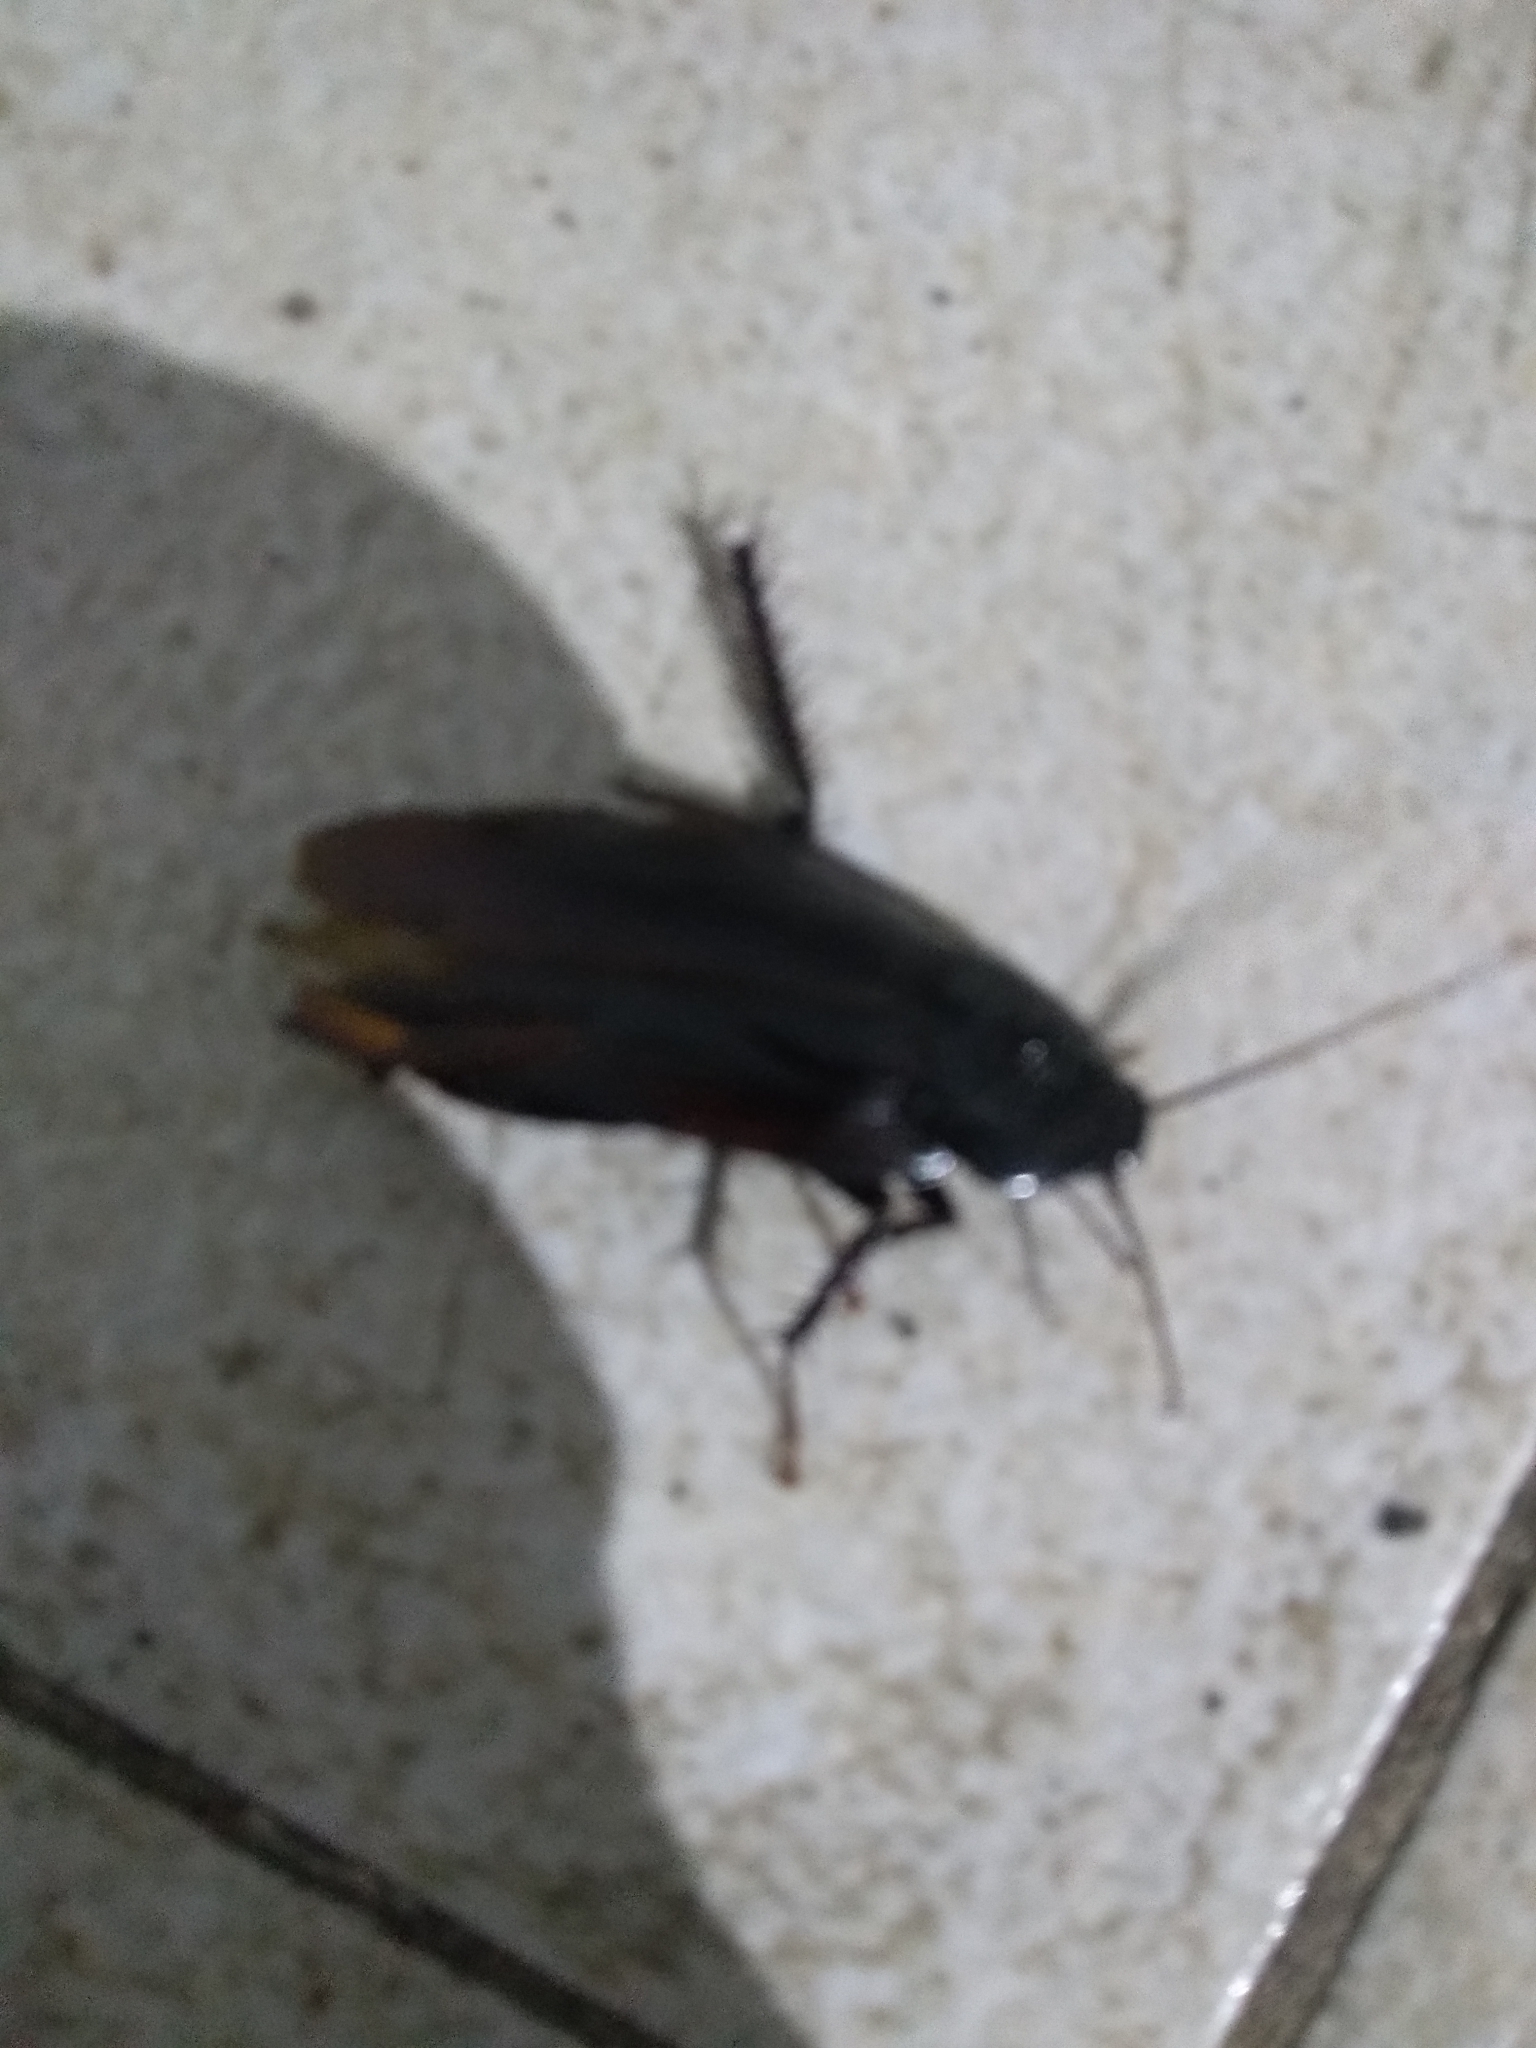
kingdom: Animalia
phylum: Arthropoda
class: Insecta
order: Blattodea
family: Blattidae
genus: Periplaneta
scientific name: Periplaneta fuliginosa
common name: Smokeybrown cockroad
